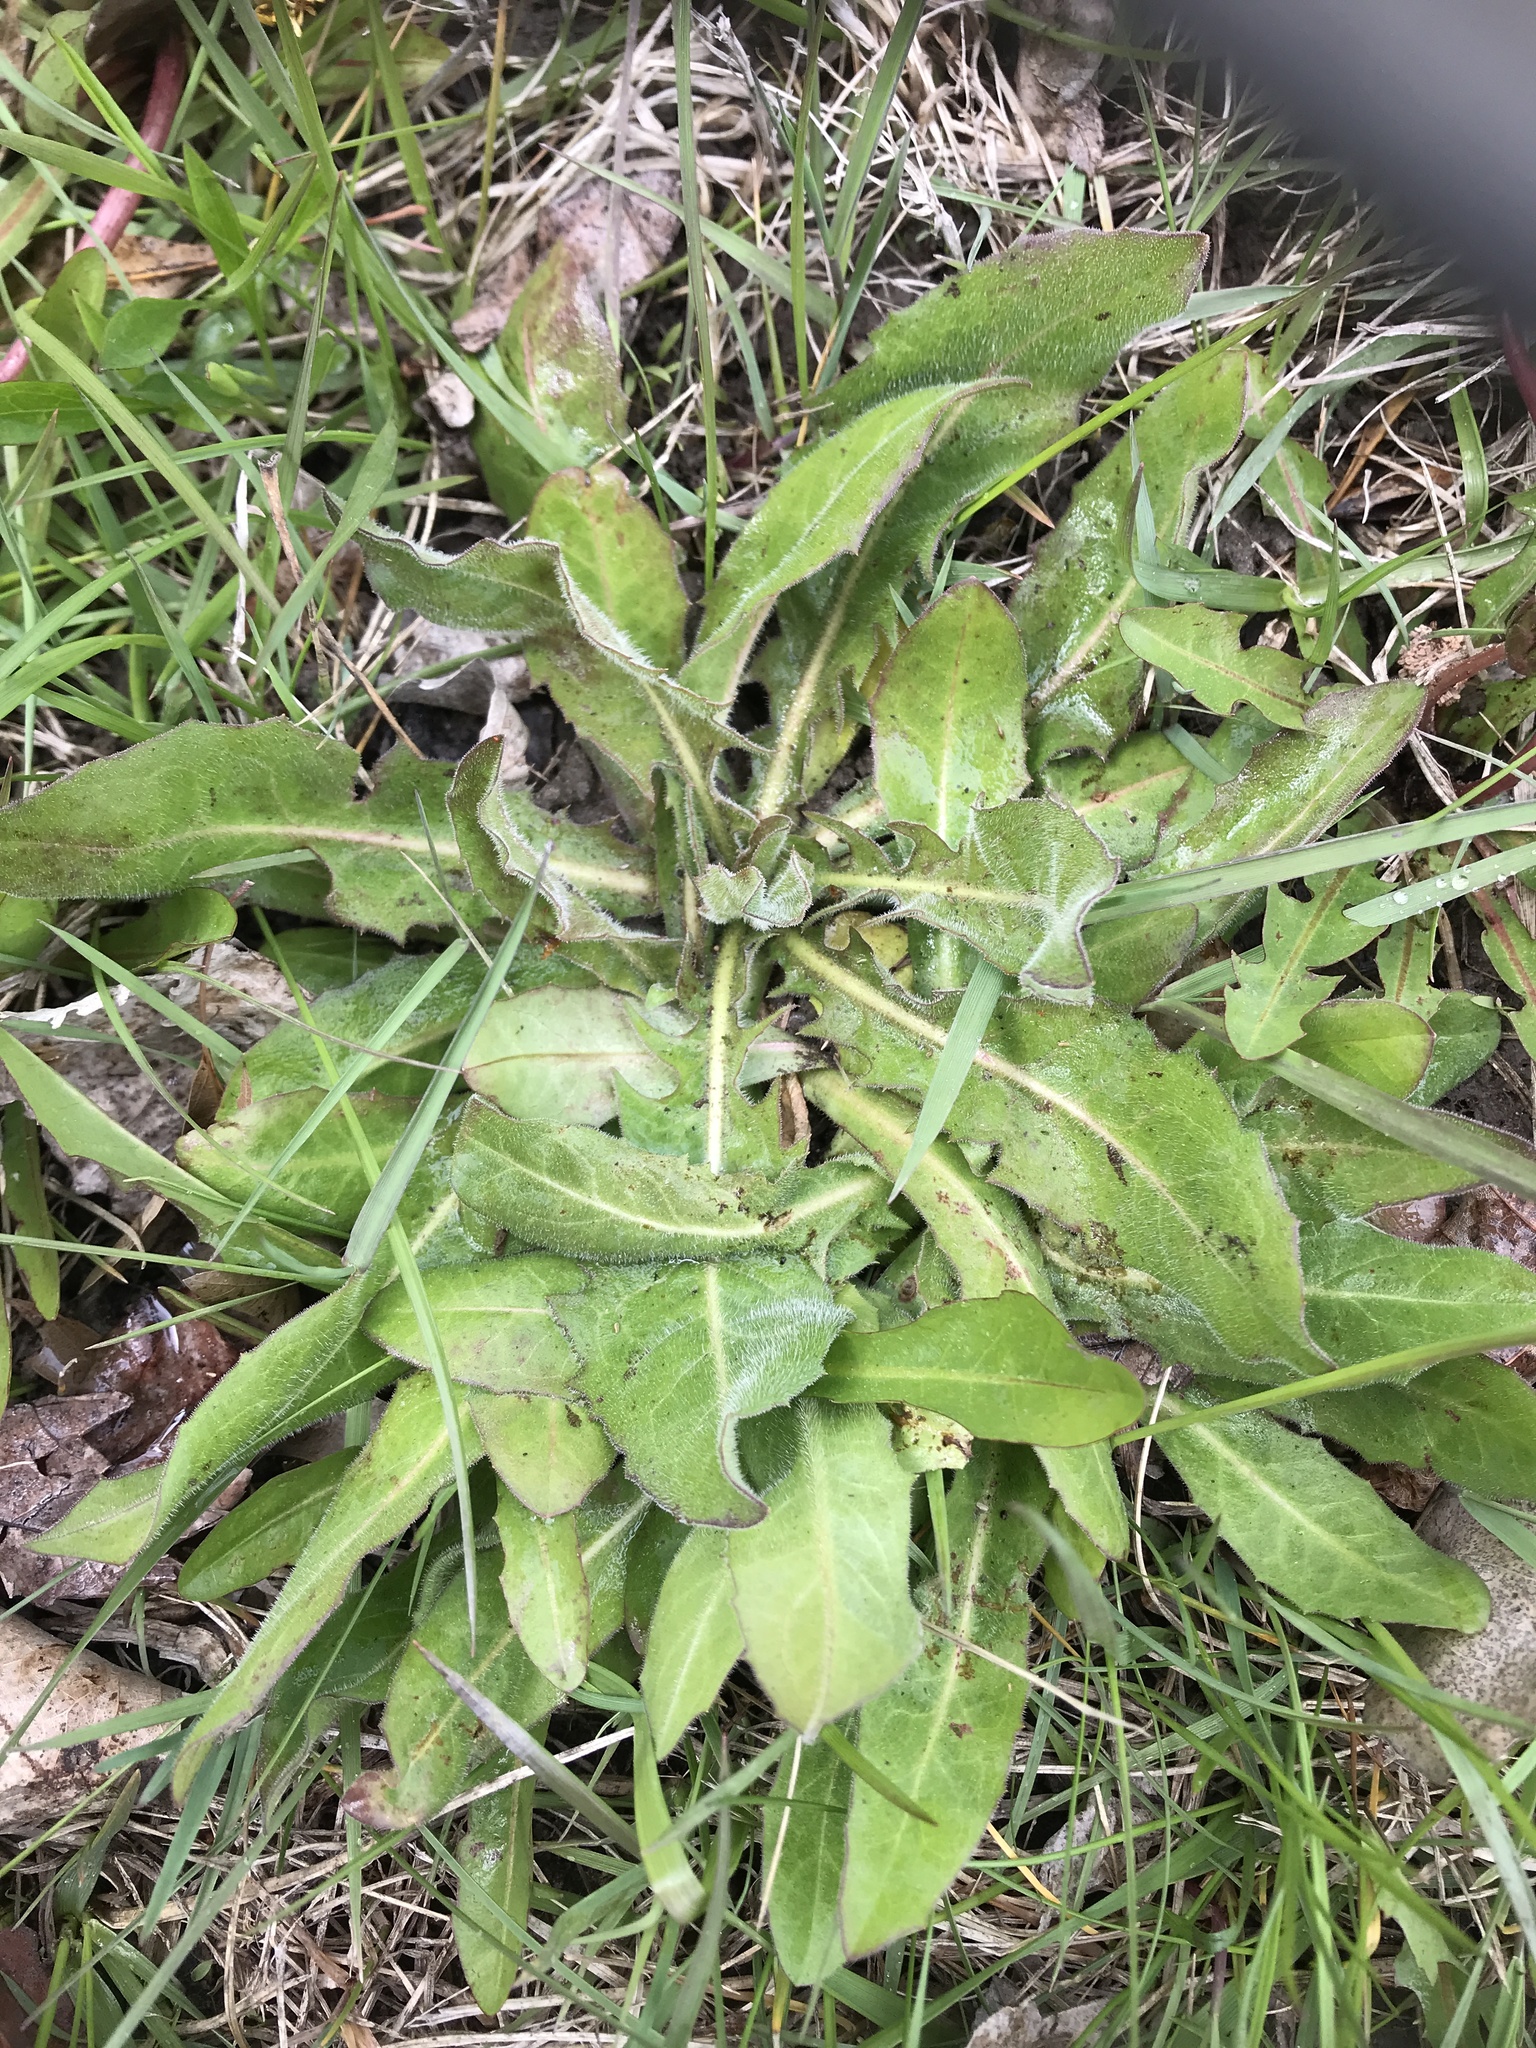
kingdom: Plantae
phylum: Tracheophyta
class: Magnoliopsida
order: Asterales
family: Asteraceae
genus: Hypochaeris
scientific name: Hypochaeris radicata
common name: Flatweed
